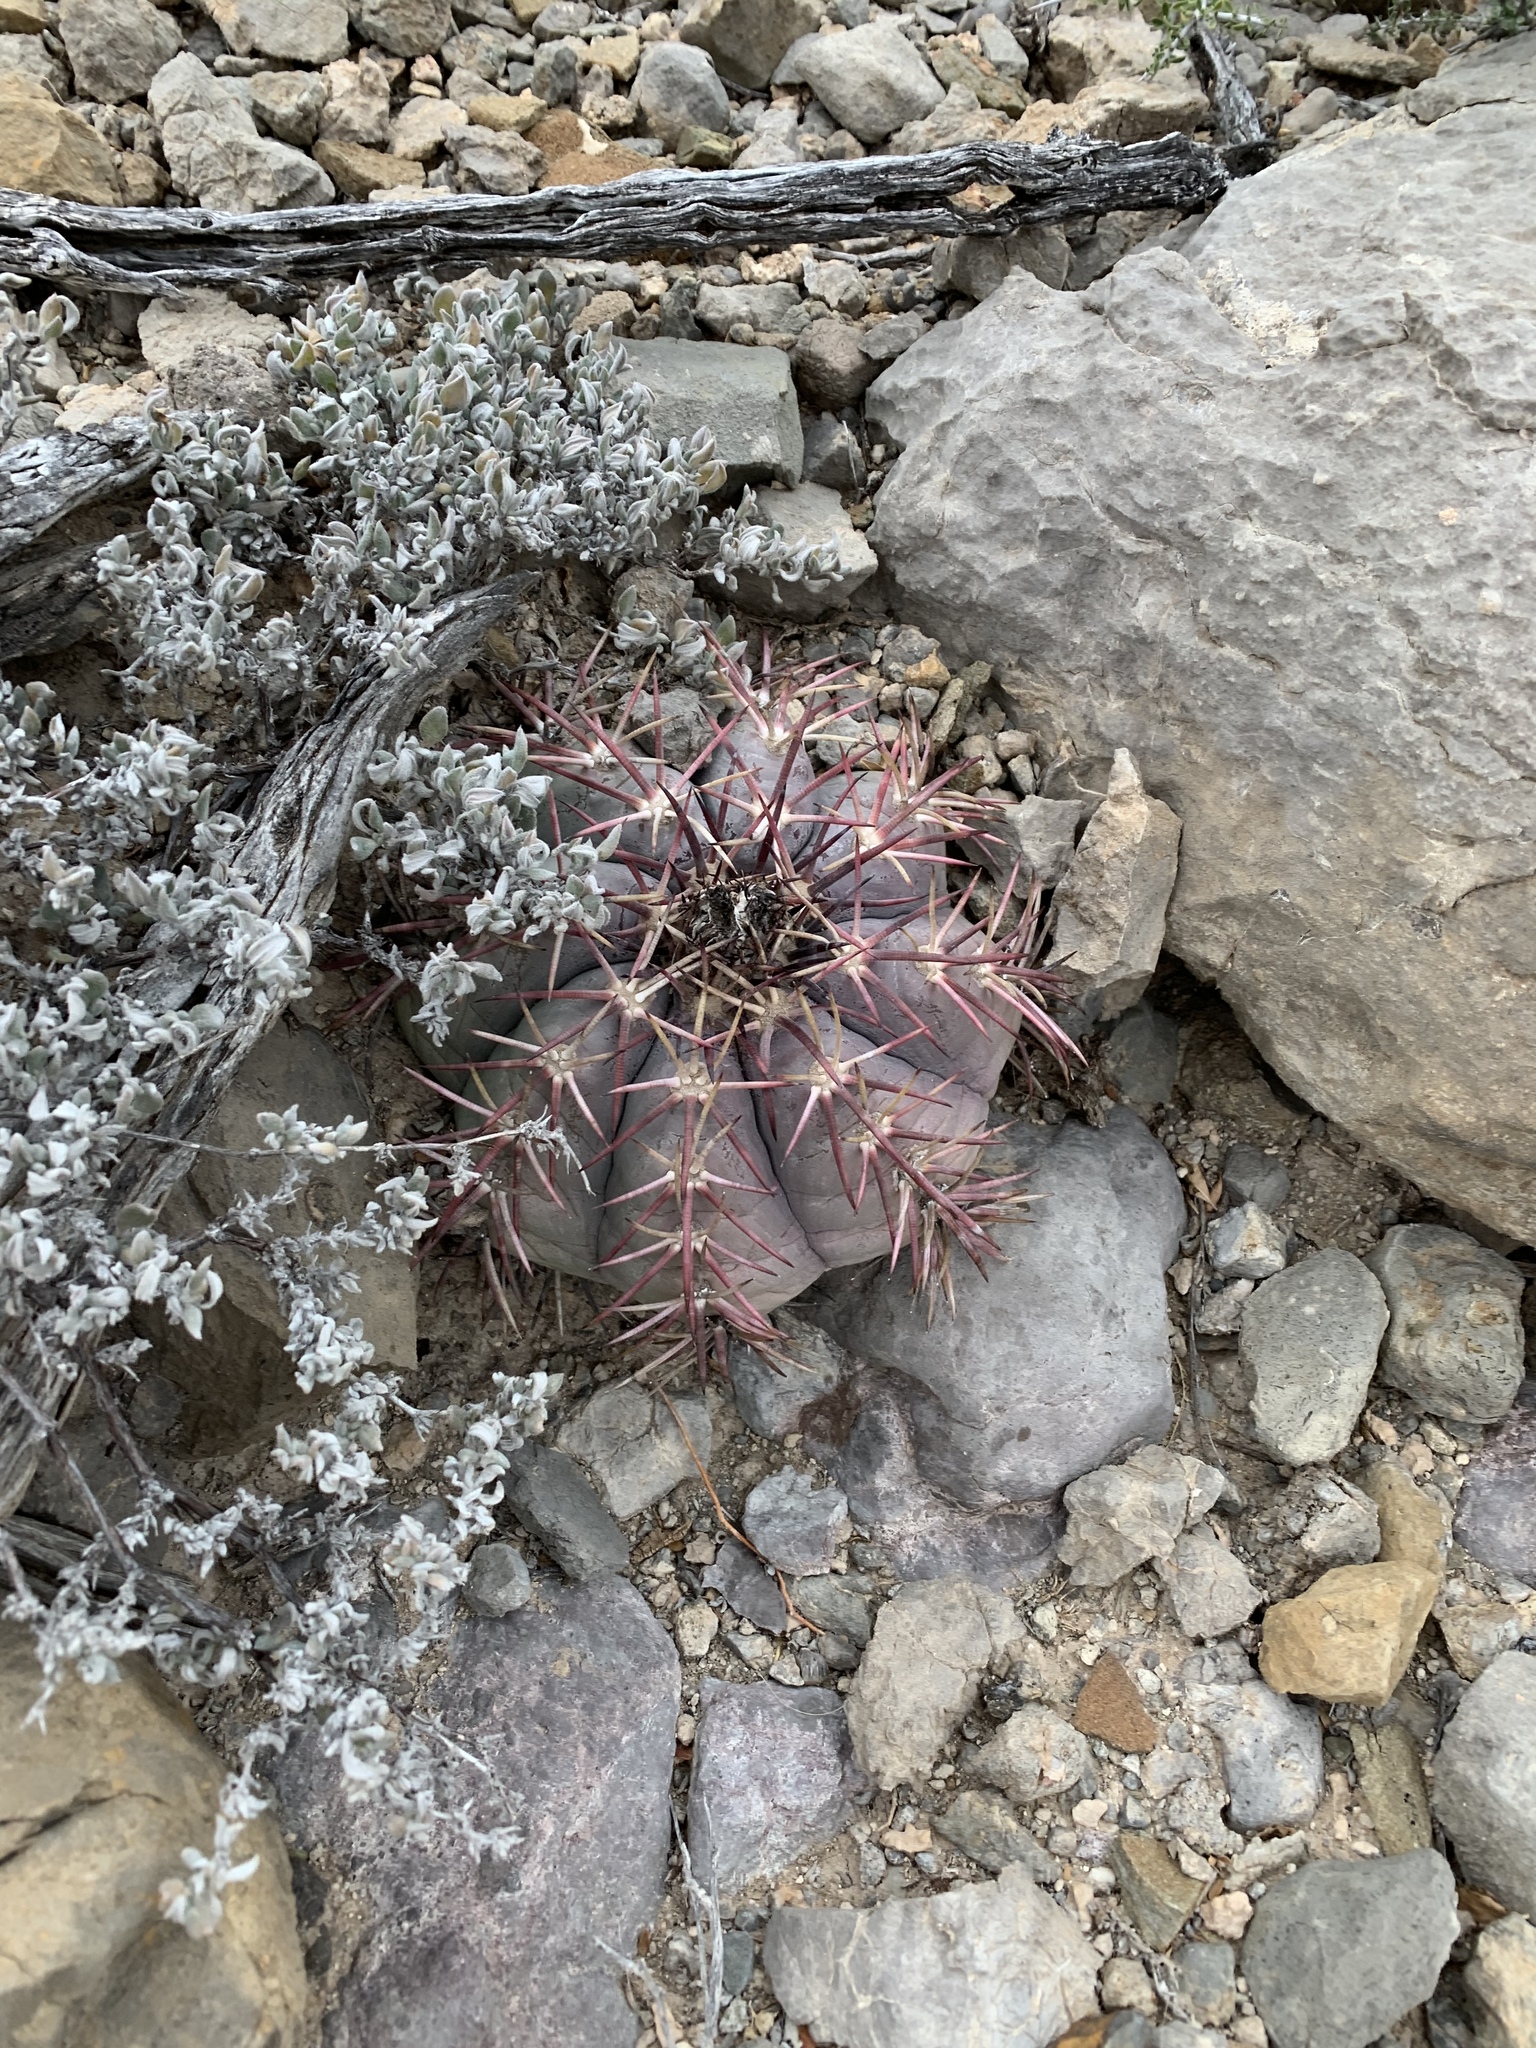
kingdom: Plantae
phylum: Tracheophyta
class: Magnoliopsida
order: Caryophyllales
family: Cactaceae
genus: Echinocactus
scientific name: Echinocactus horizonthalonius
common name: Devilshead
